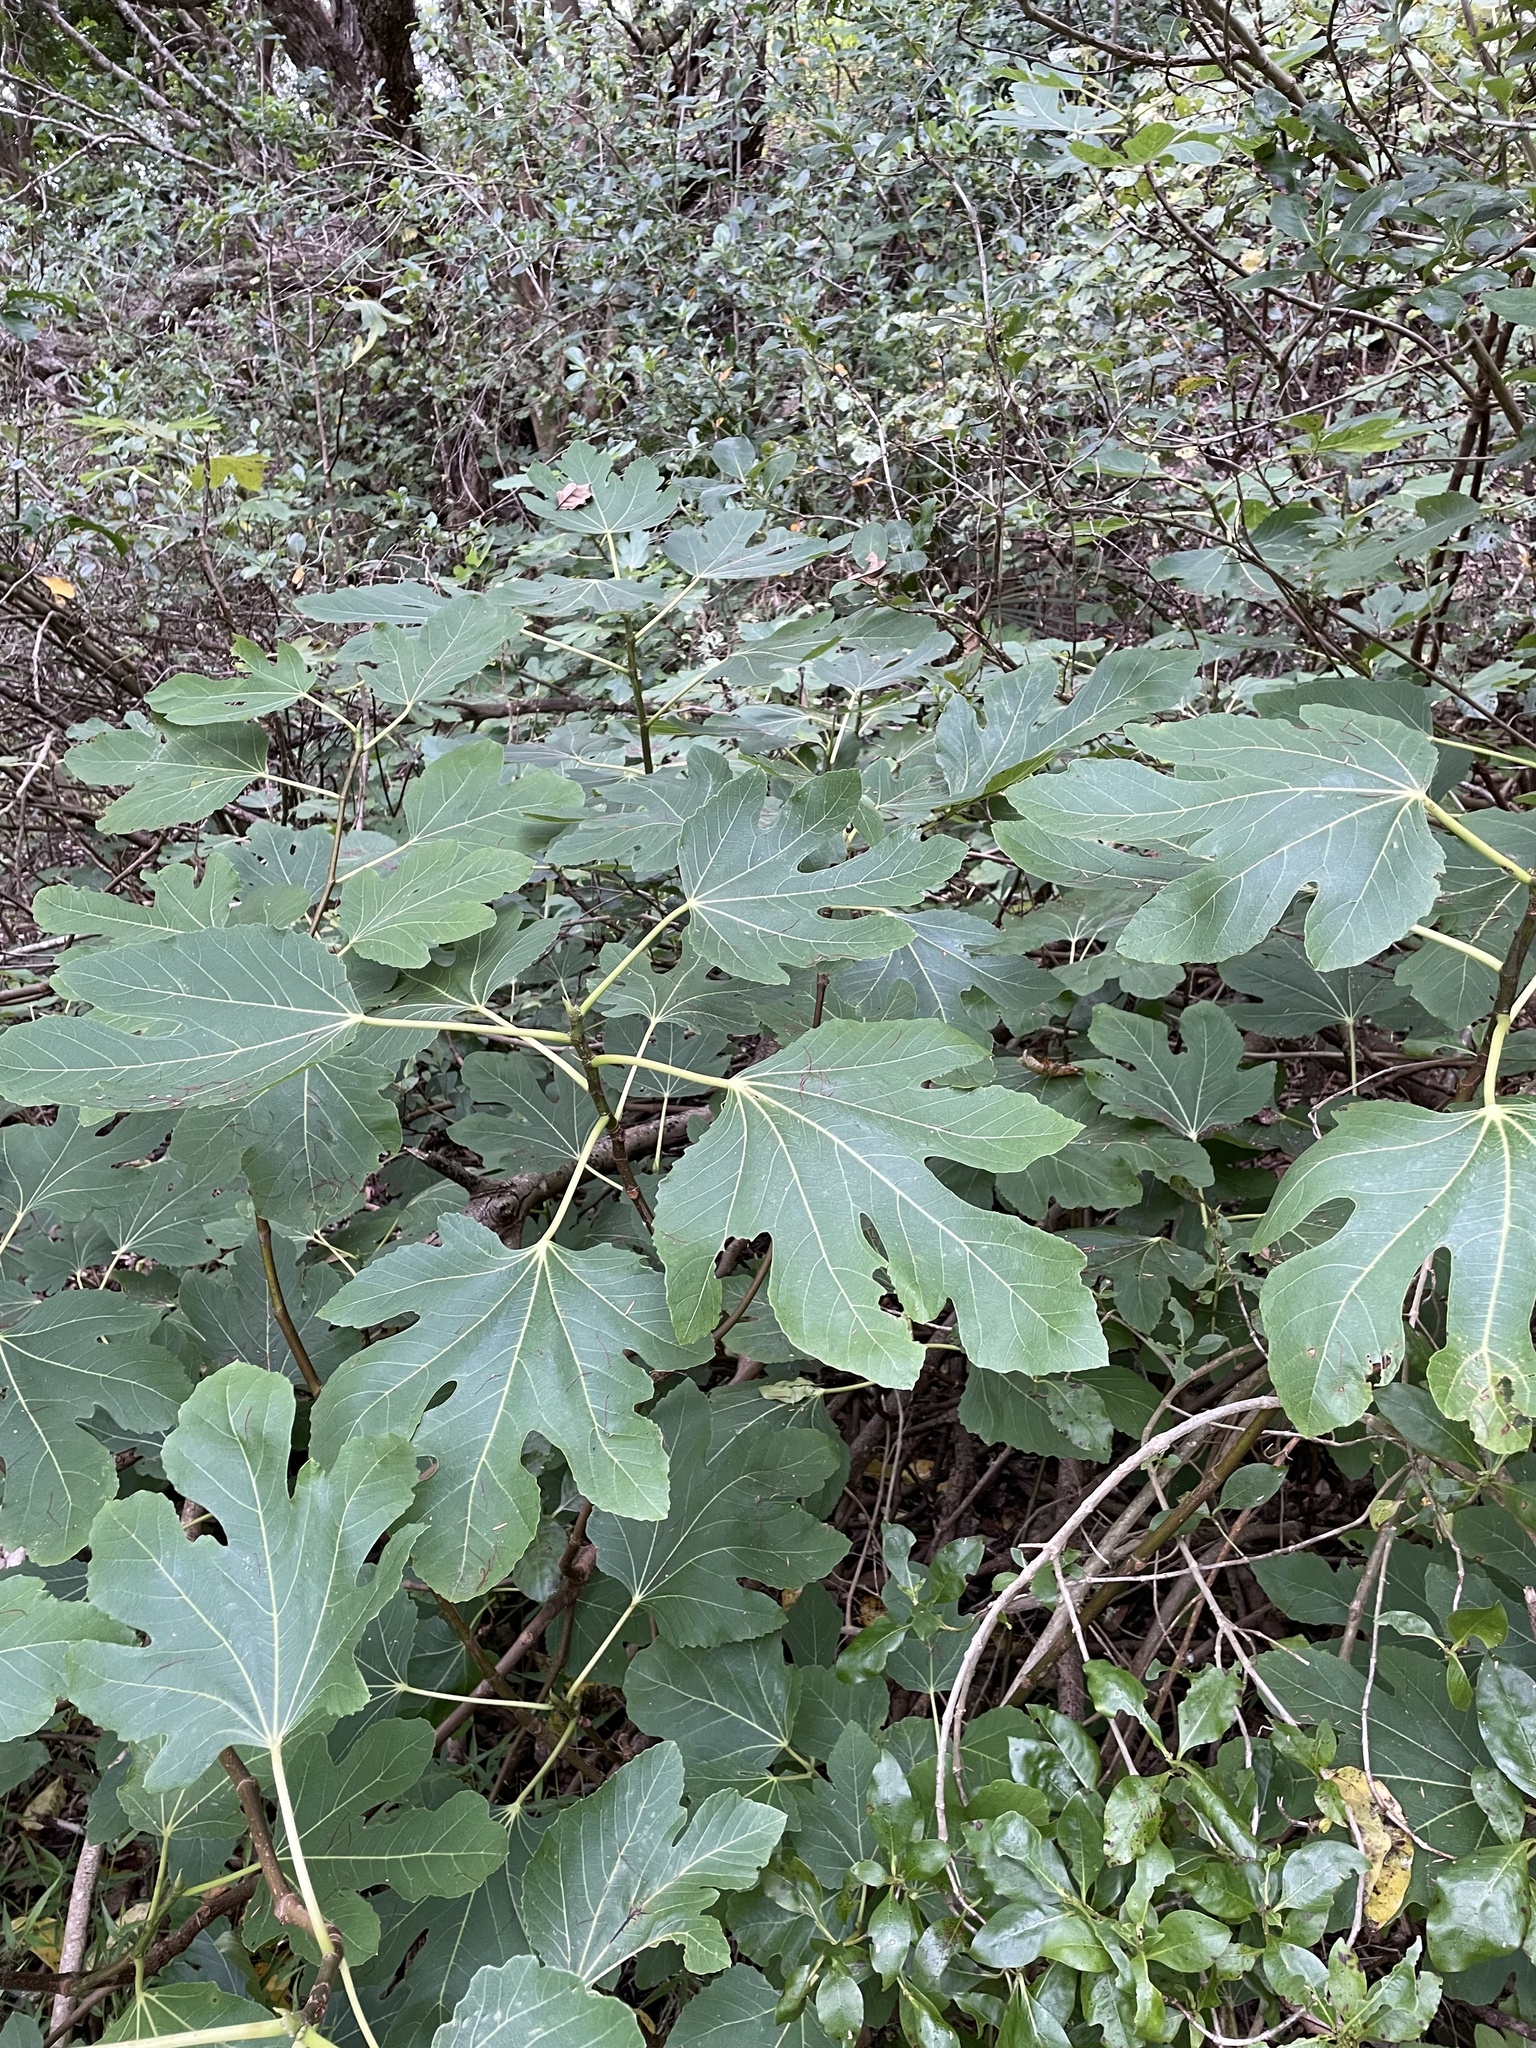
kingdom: Plantae
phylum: Tracheophyta
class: Magnoliopsida
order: Rosales
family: Moraceae
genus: Ficus
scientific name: Ficus carica
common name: Fig
